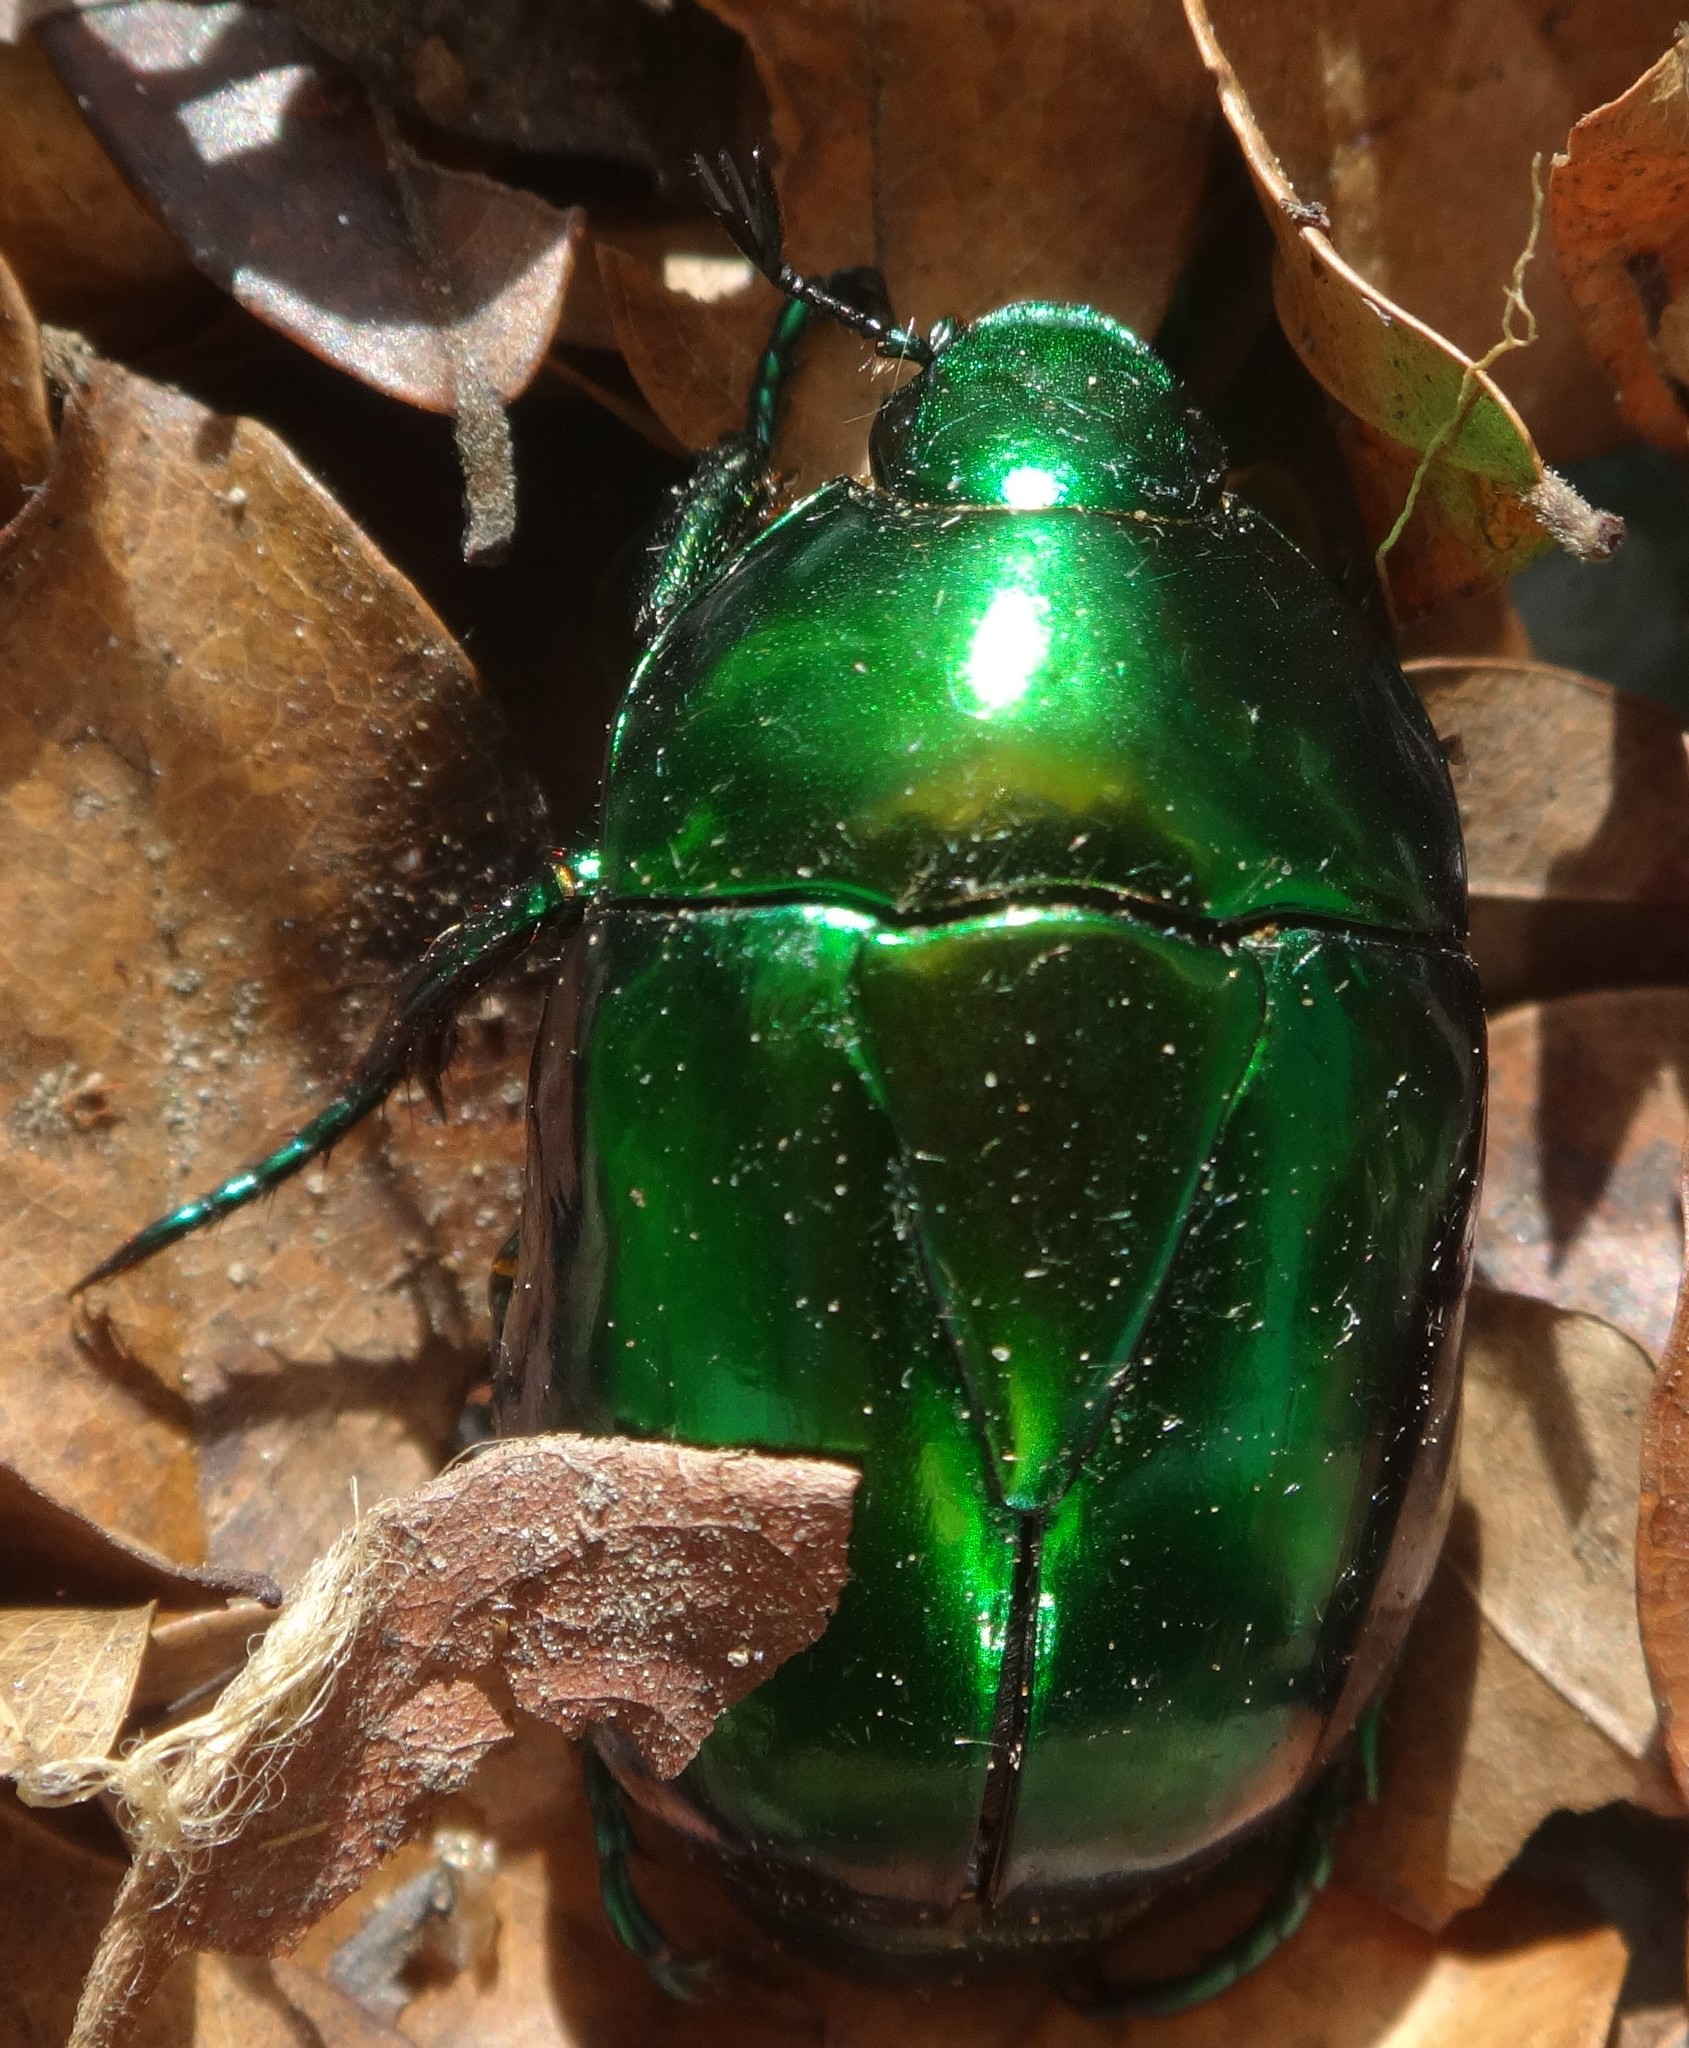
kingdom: Animalia
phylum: Arthropoda
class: Insecta
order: Coleoptera
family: Scarabaeidae
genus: Macraspis
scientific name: Macraspis chrysis
